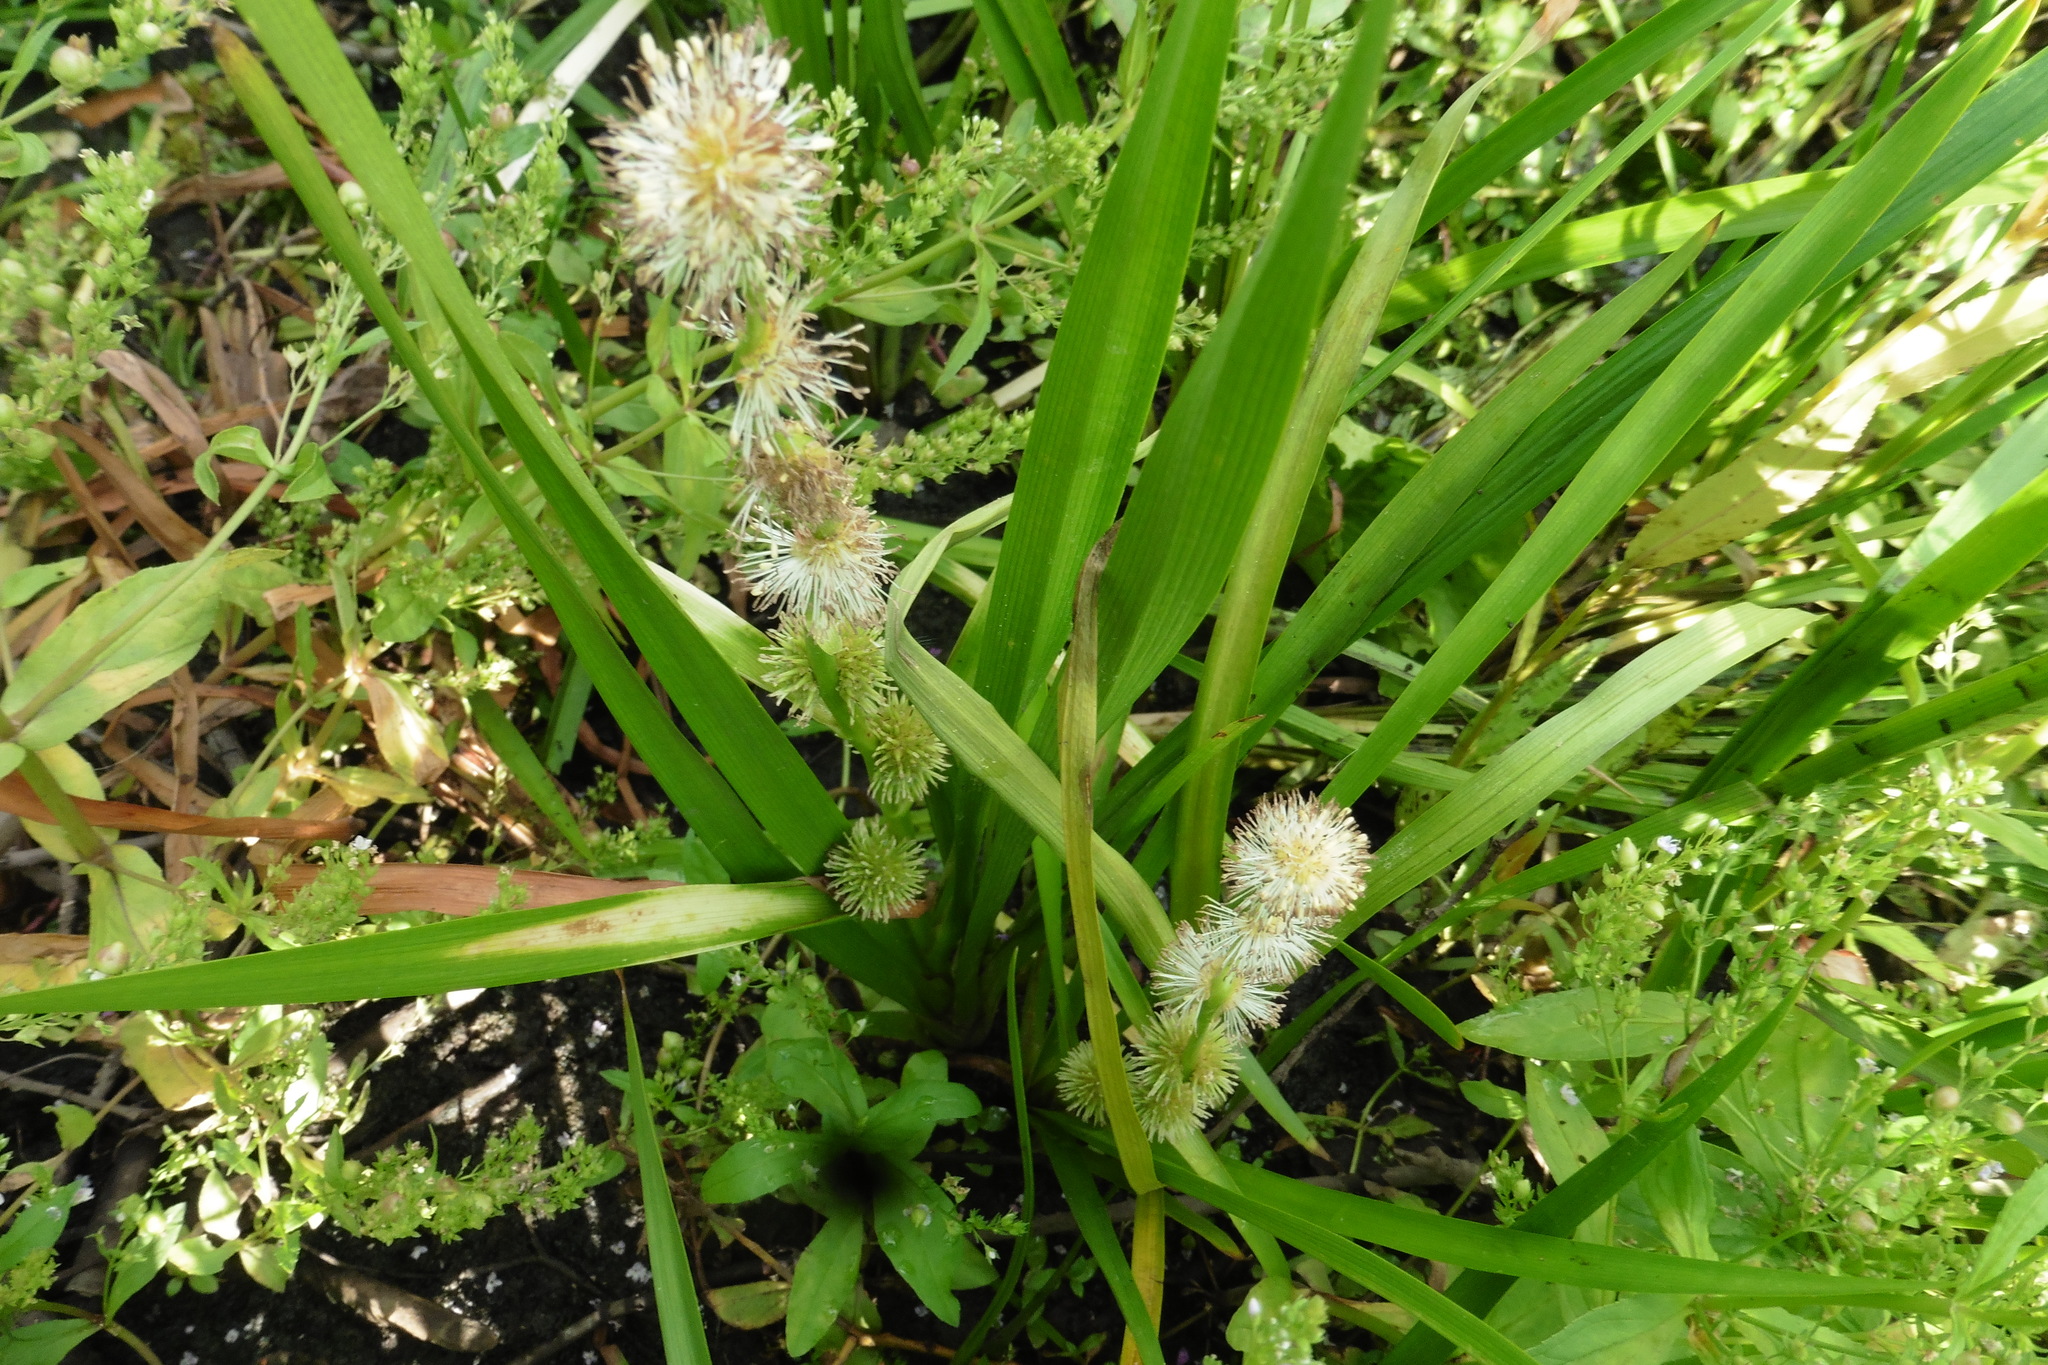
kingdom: Plantae
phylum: Tracheophyta
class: Liliopsida
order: Poales
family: Typhaceae
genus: Sparganium
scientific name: Sparganium erectum
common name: Branched bur-reed
